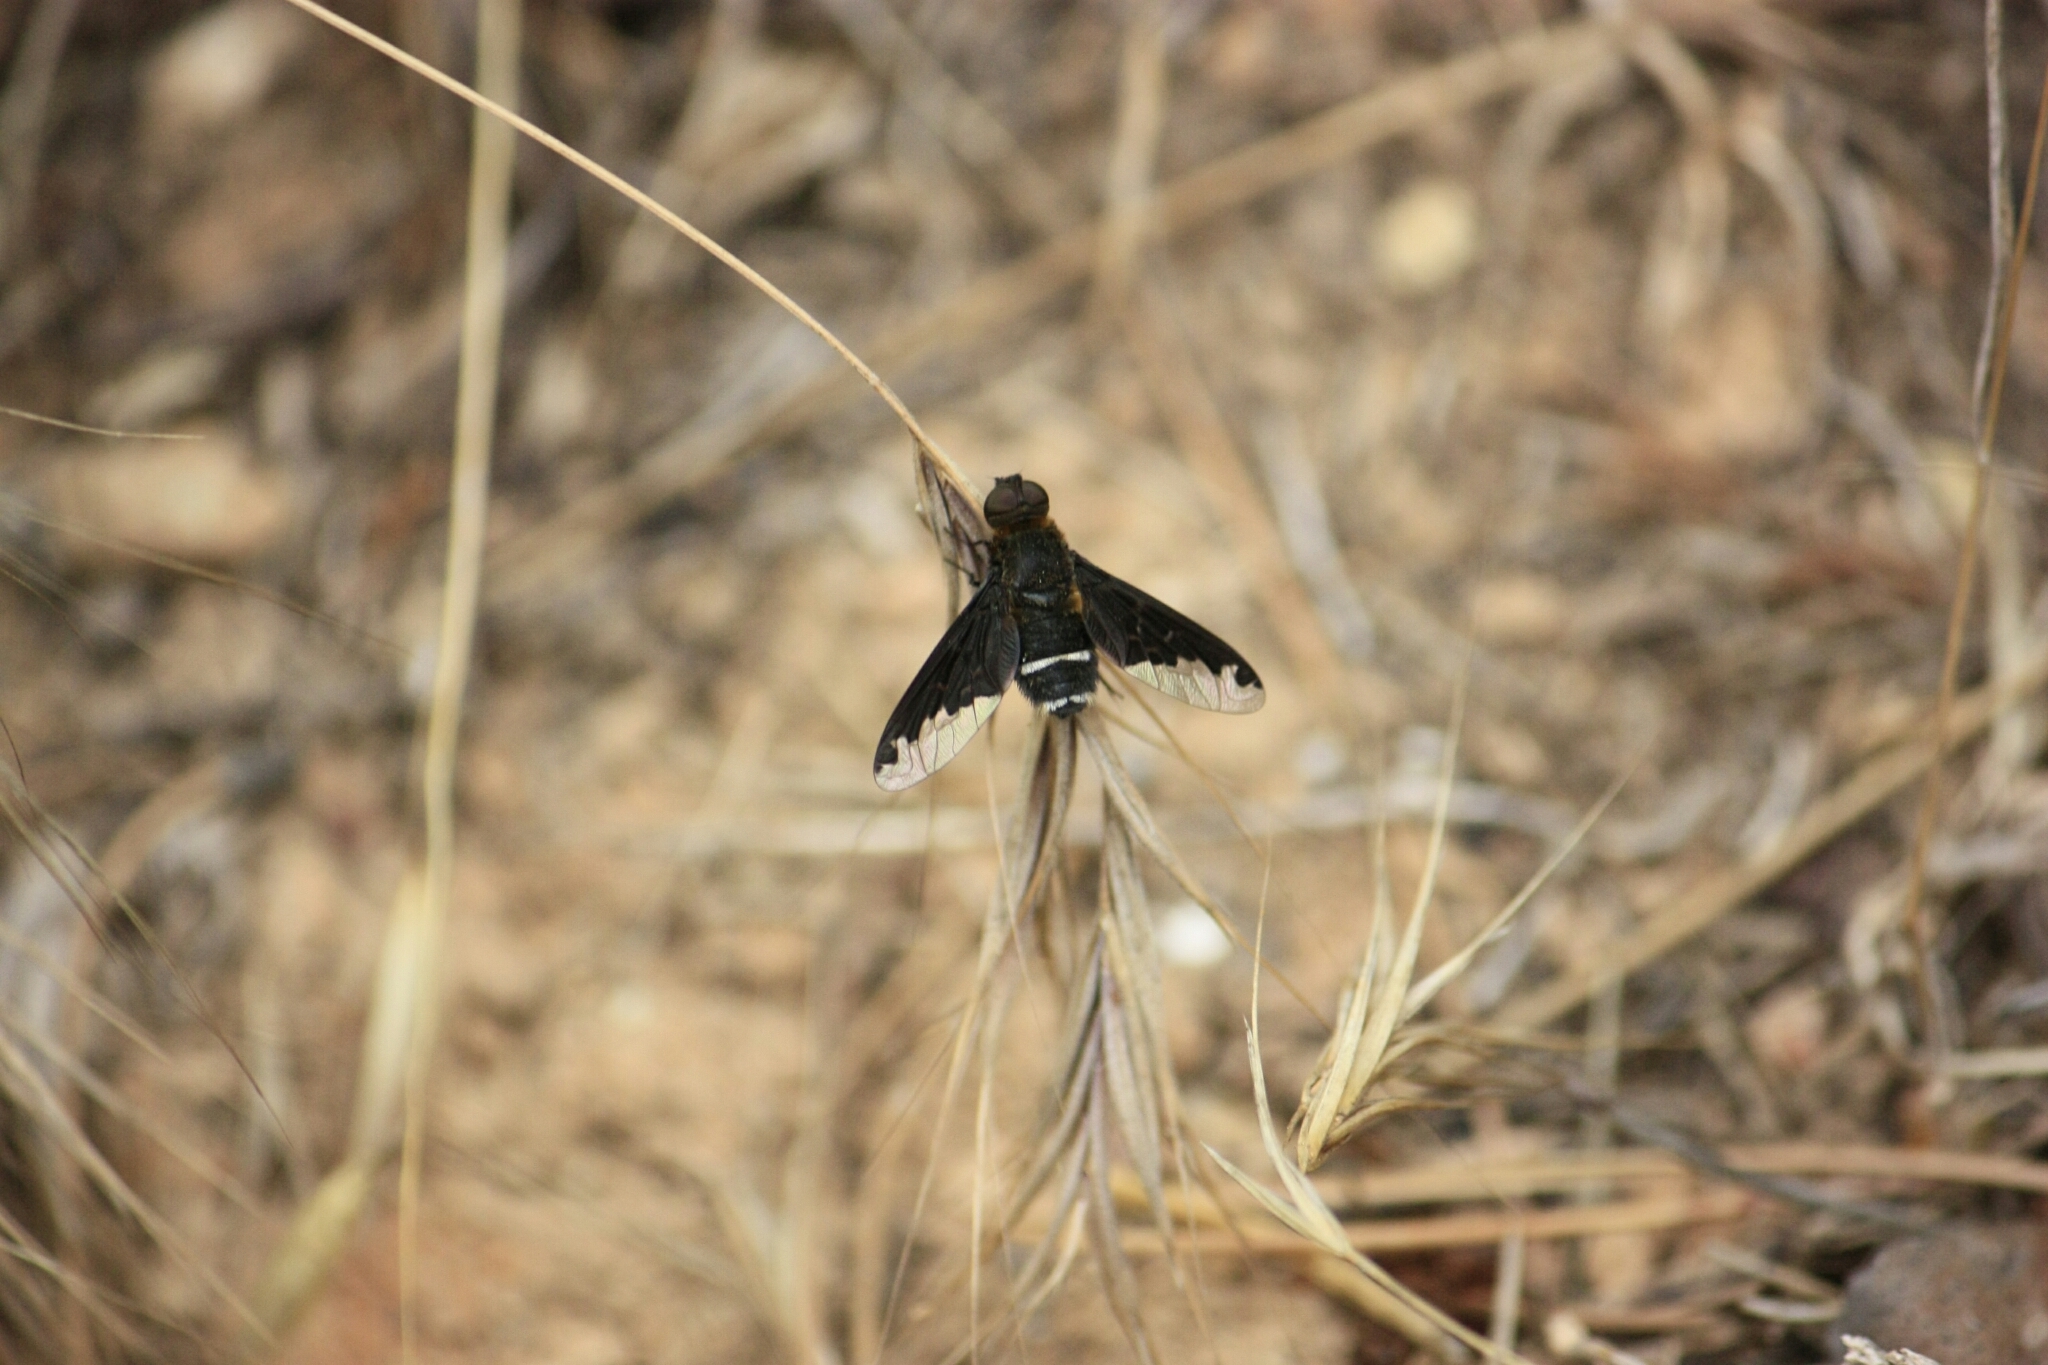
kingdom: Animalia
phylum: Arthropoda
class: Insecta
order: Diptera
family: Bombyliidae
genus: Hemipenthes
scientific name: Hemipenthes velutina
